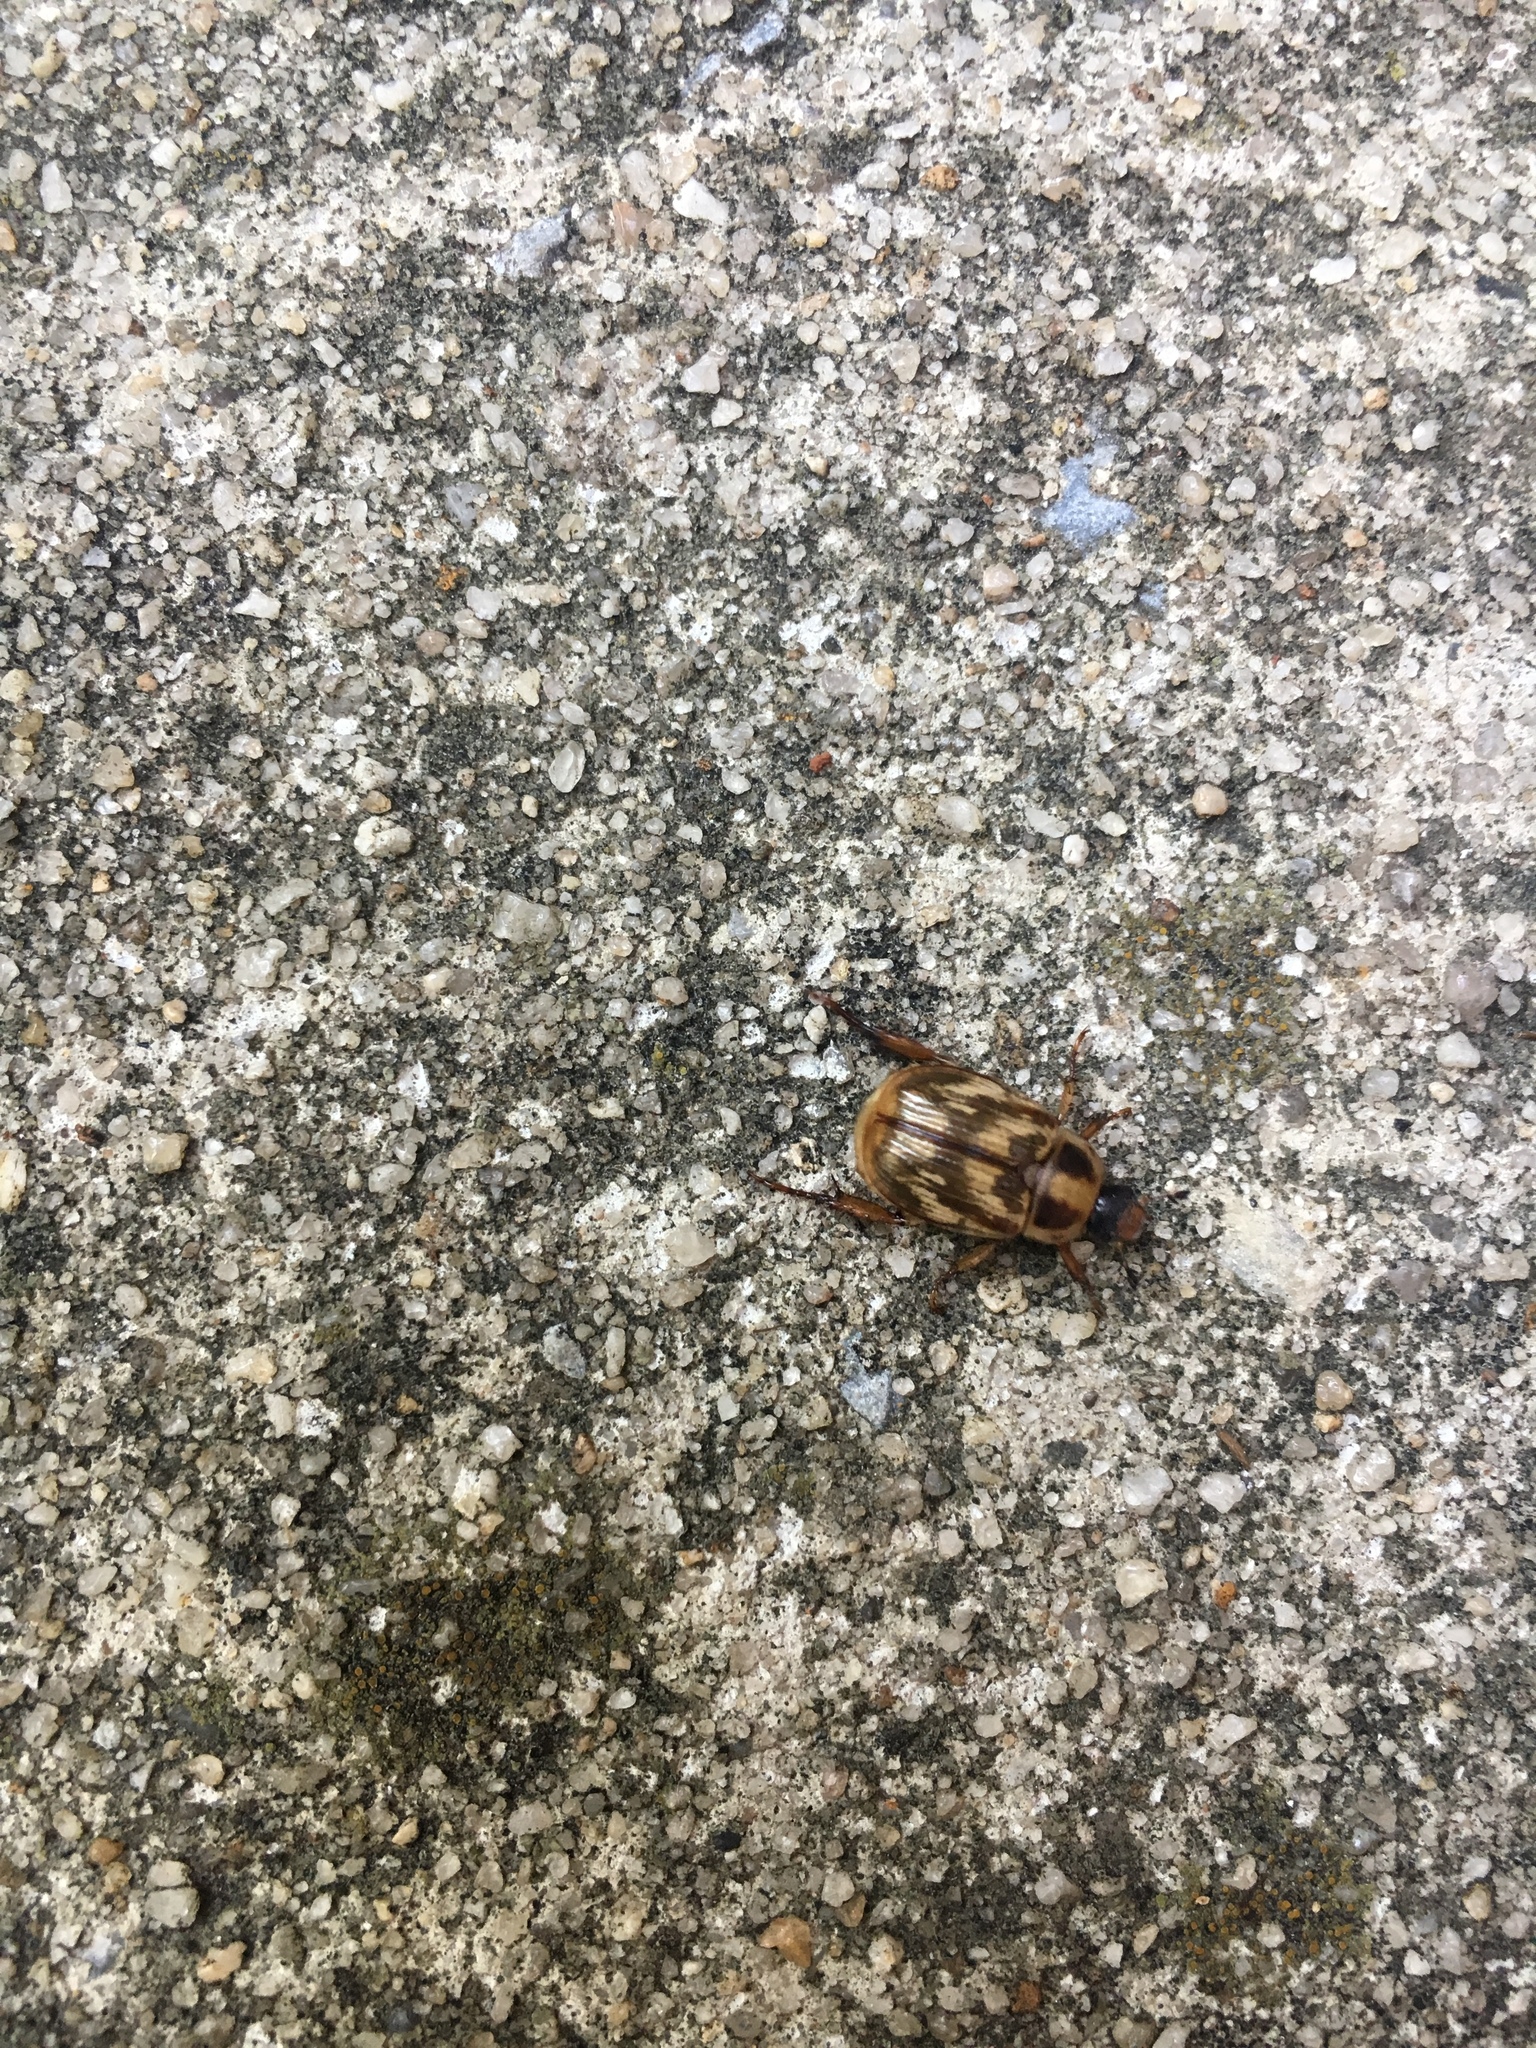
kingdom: Animalia
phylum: Arthropoda
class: Insecta
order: Coleoptera
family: Scarabaeidae
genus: Exomala
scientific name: Exomala orientalis
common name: Oriental beetle
